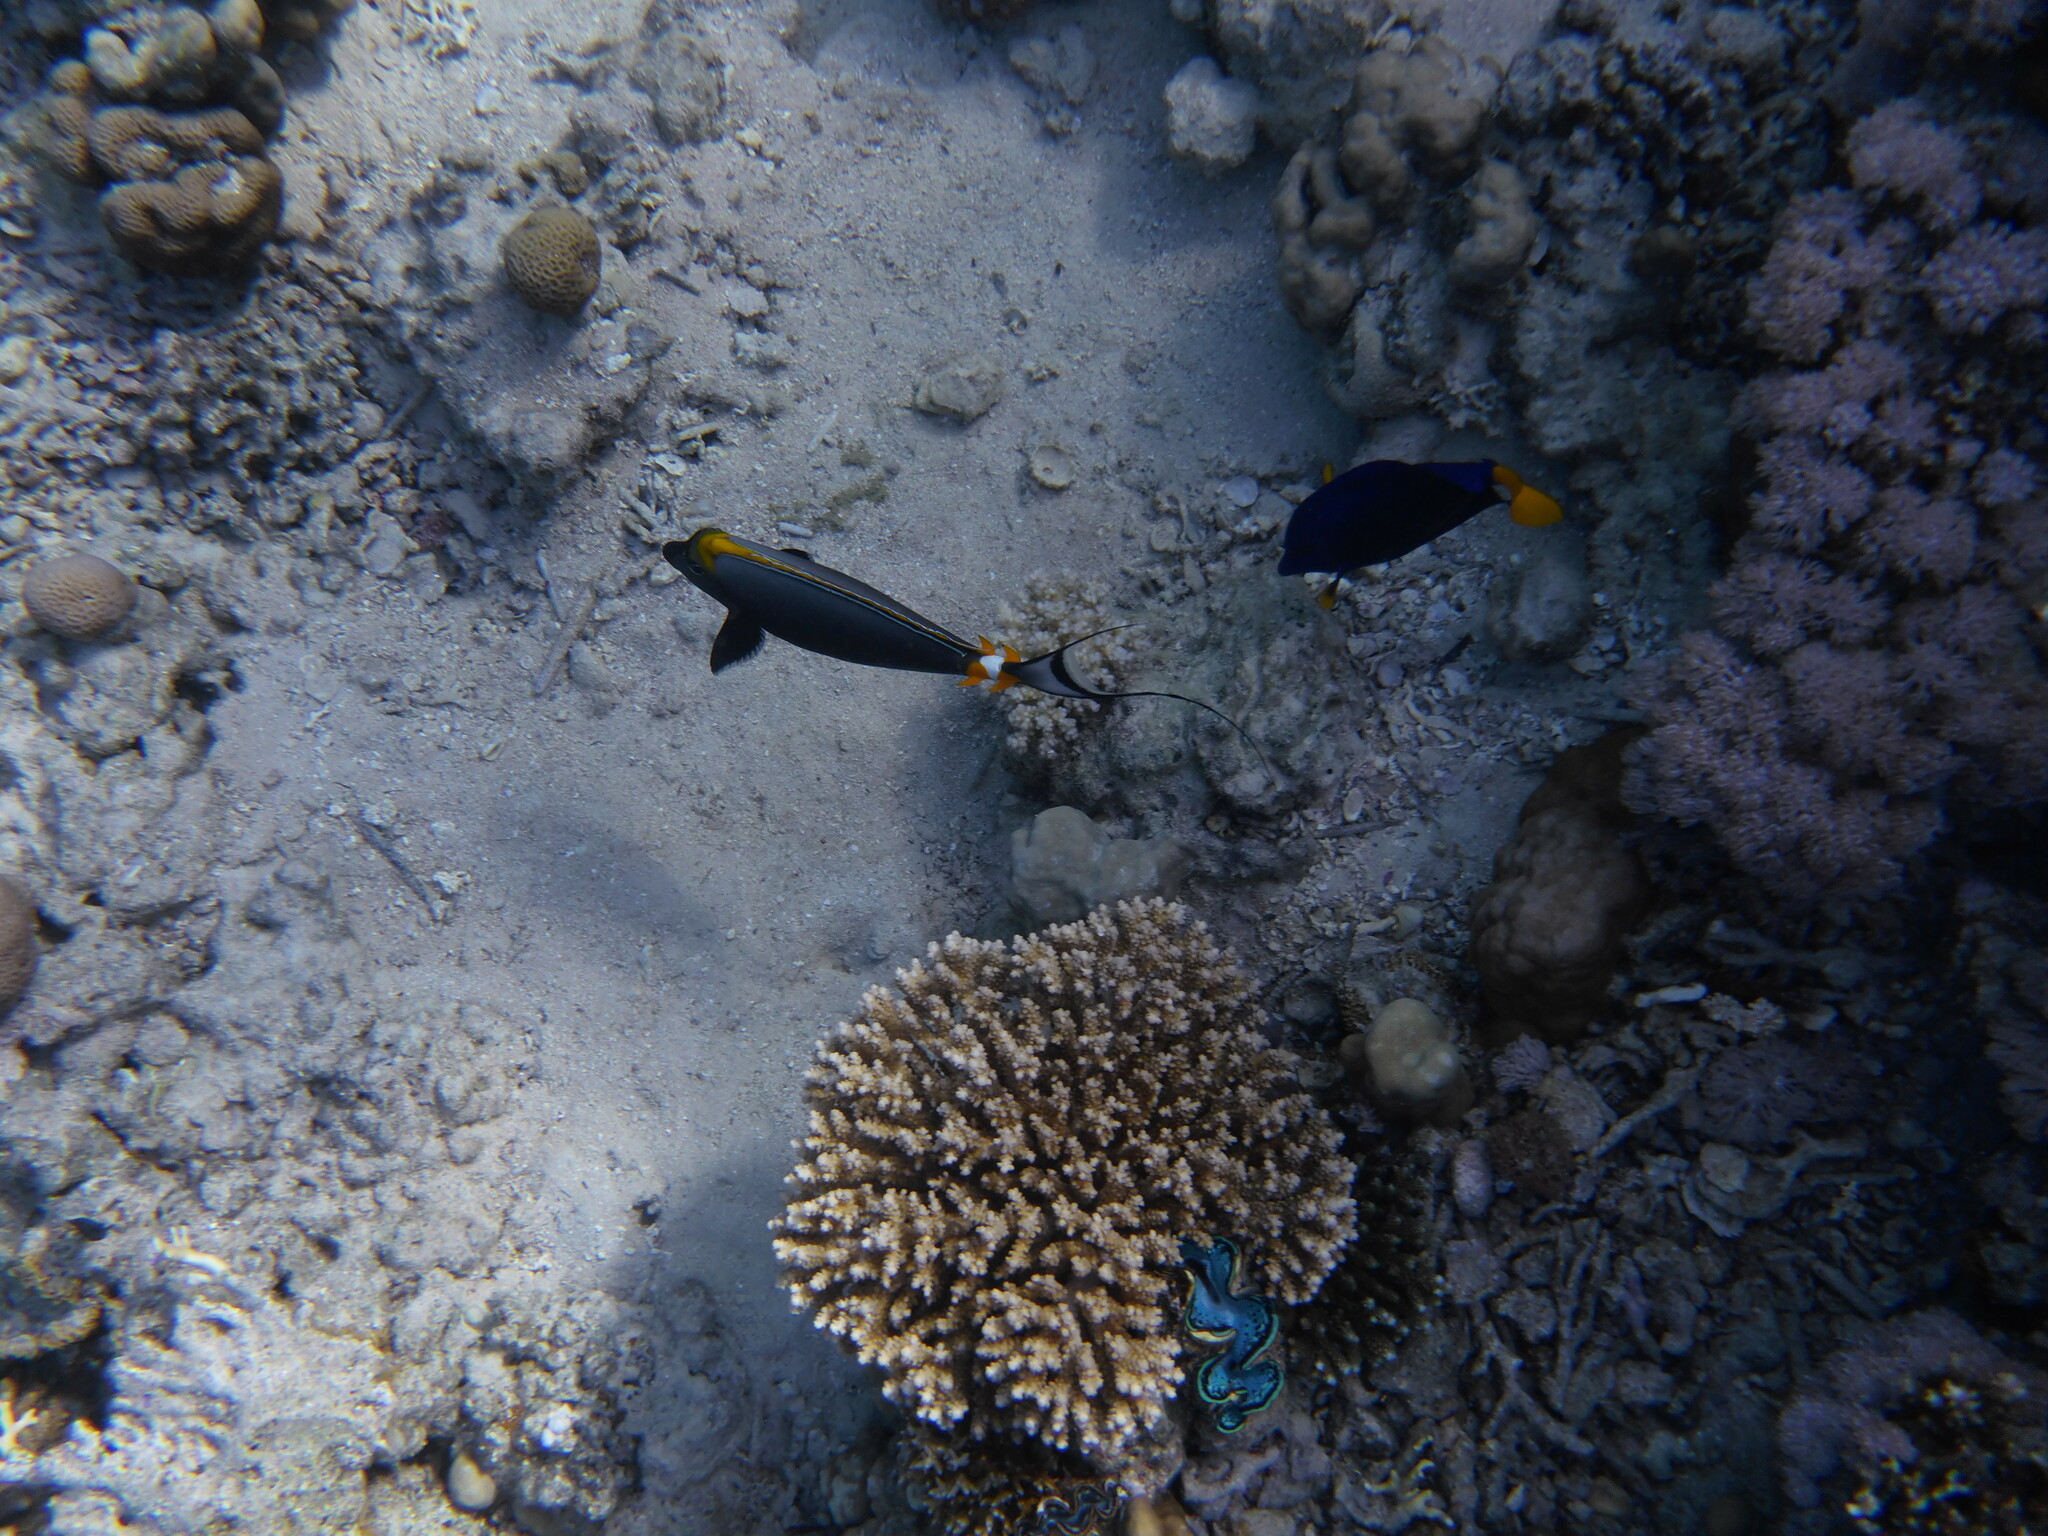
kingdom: Animalia
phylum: Chordata
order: Perciformes
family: Acanthuridae
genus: Naso
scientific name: Naso elegans
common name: Orangespine unicornfish
